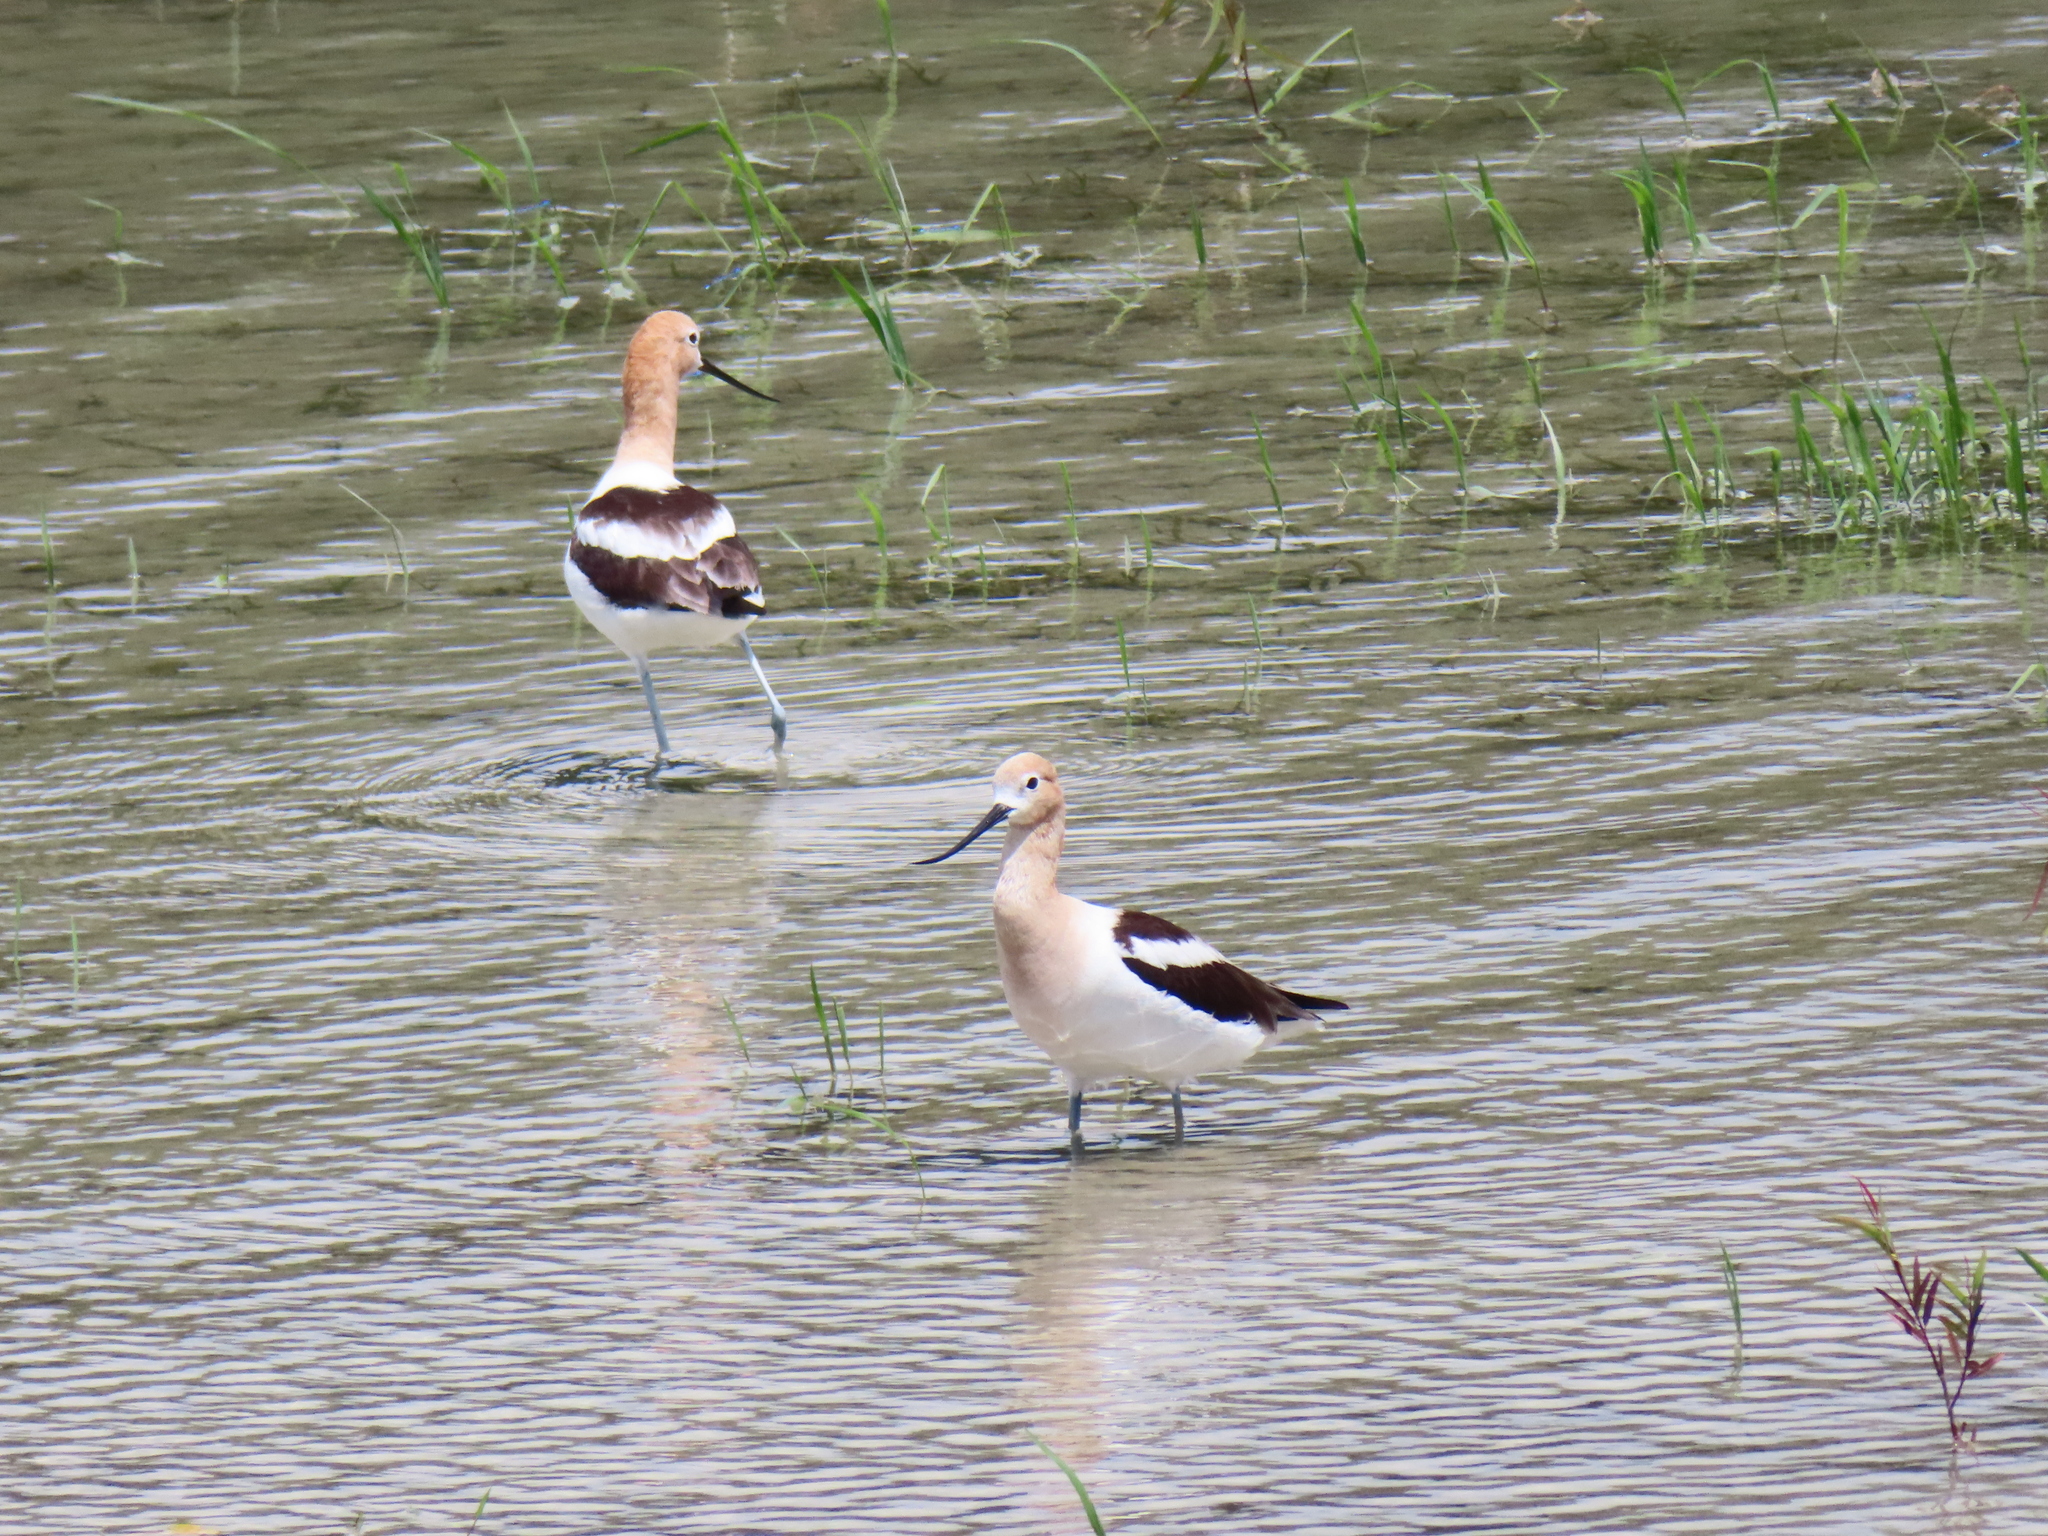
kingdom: Animalia
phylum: Chordata
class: Aves
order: Charadriiformes
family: Recurvirostridae
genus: Recurvirostra
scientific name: Recurvirostra americana
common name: American avocet
